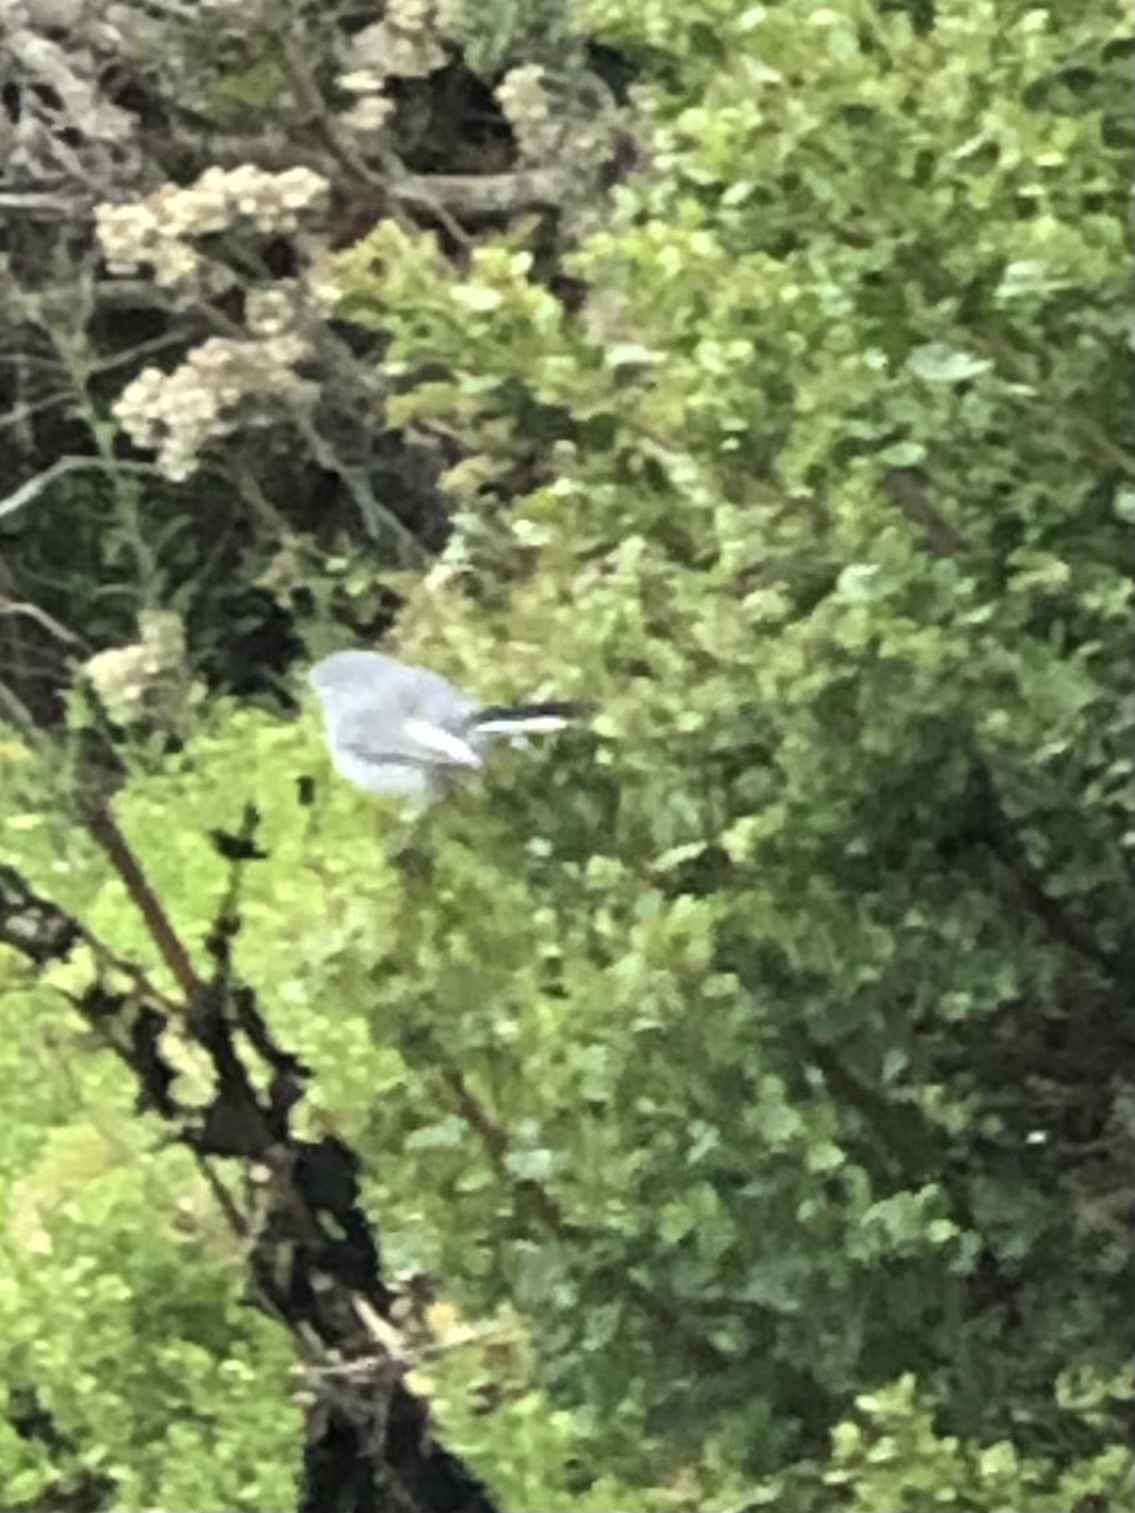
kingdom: Animalia
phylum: Chordata
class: Aves
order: Passeriformes
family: Polioptilidae
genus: Polioptila
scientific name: Polioptila caerulea
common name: Blue-gray gnatcatcher
